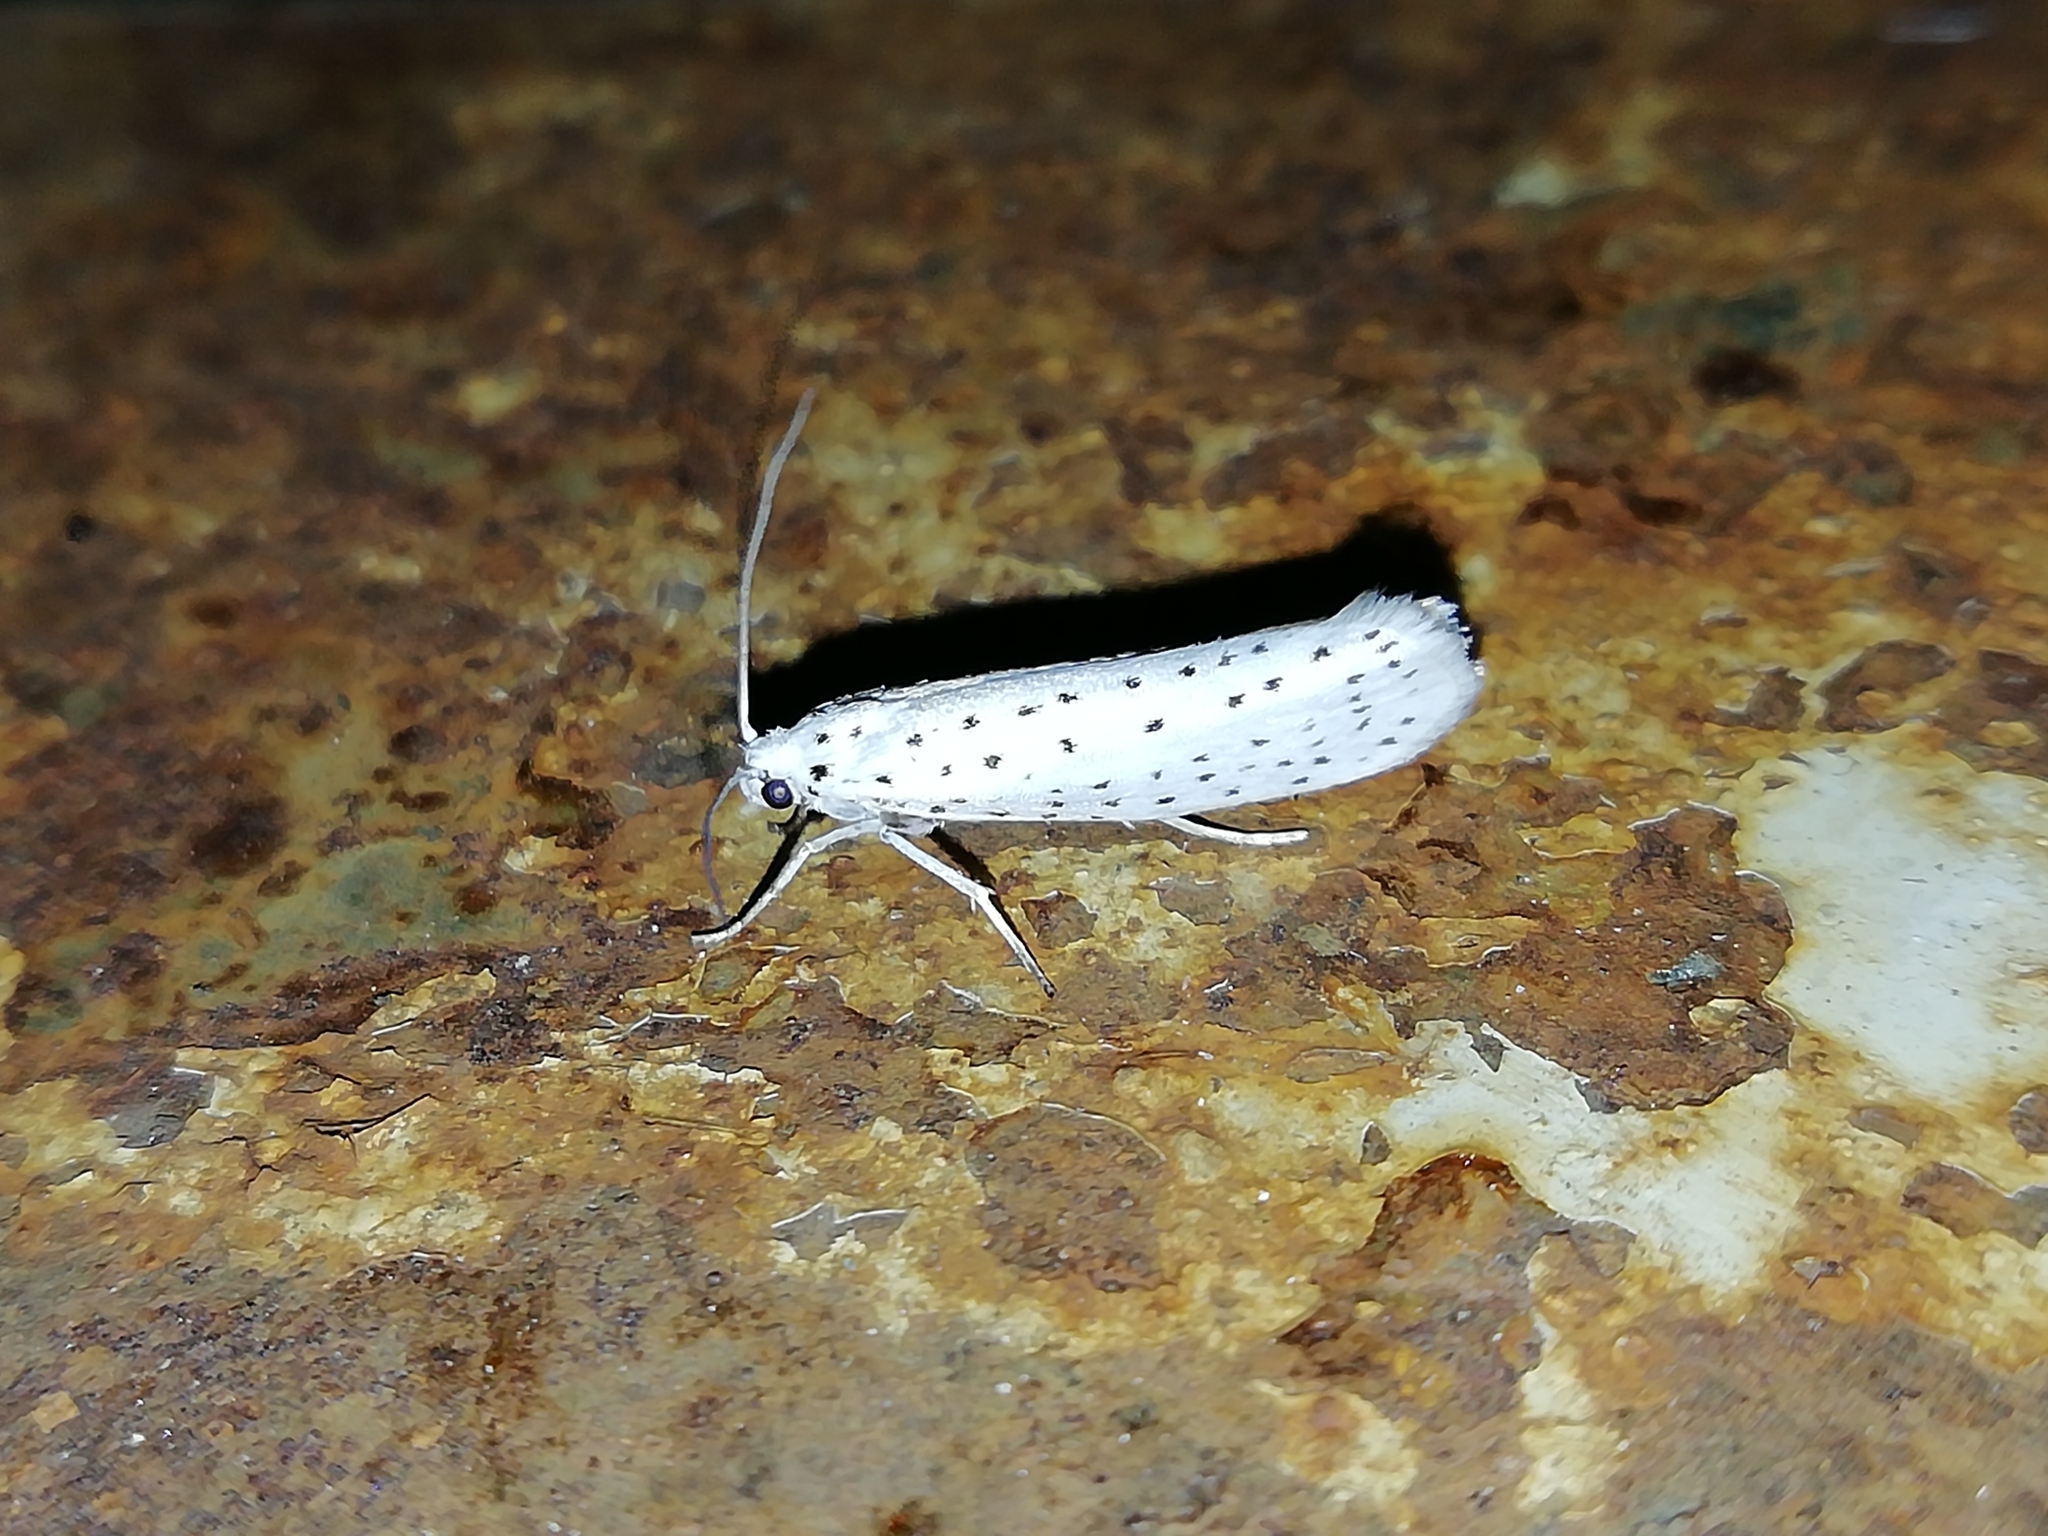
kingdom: Animalia
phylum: Arthropoda
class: Insecta
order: Lepidoptera
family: Yponomeutidae
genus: Yponomeuta
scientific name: Yponomeuta evonymella
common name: Bird-cherry ermine
